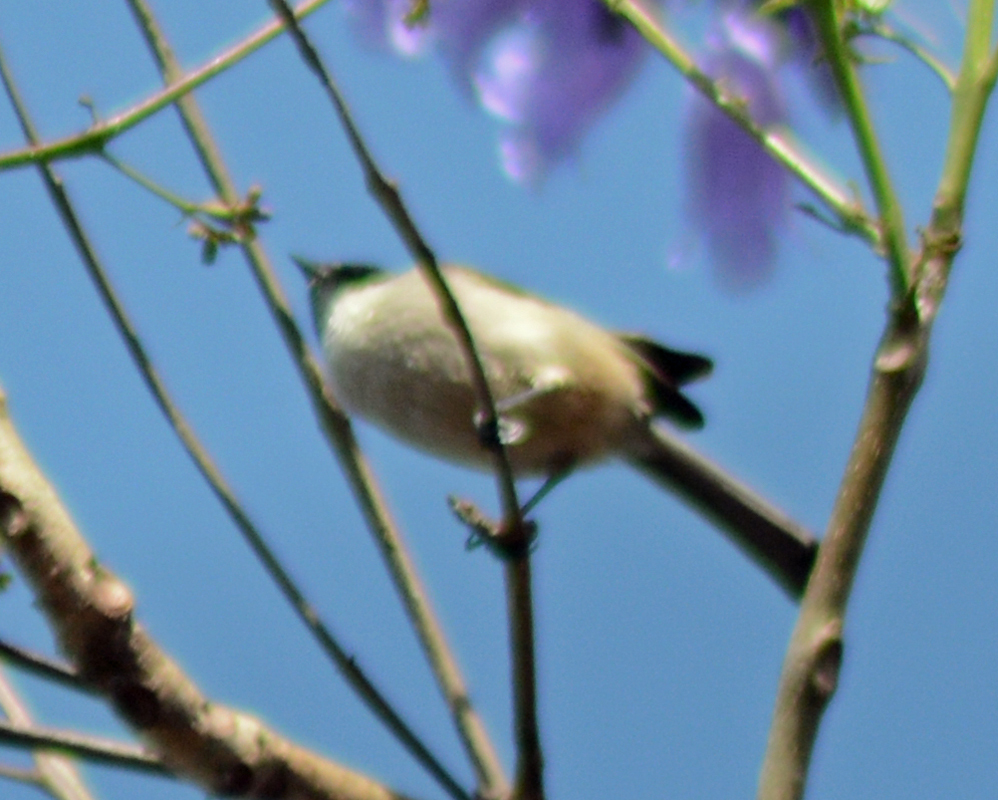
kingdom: Animalia
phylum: Chordata
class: Aves
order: Passeriformes
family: Aegithalidae
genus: Psaltriparus
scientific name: Psaltriparus minimus
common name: American bushtit
